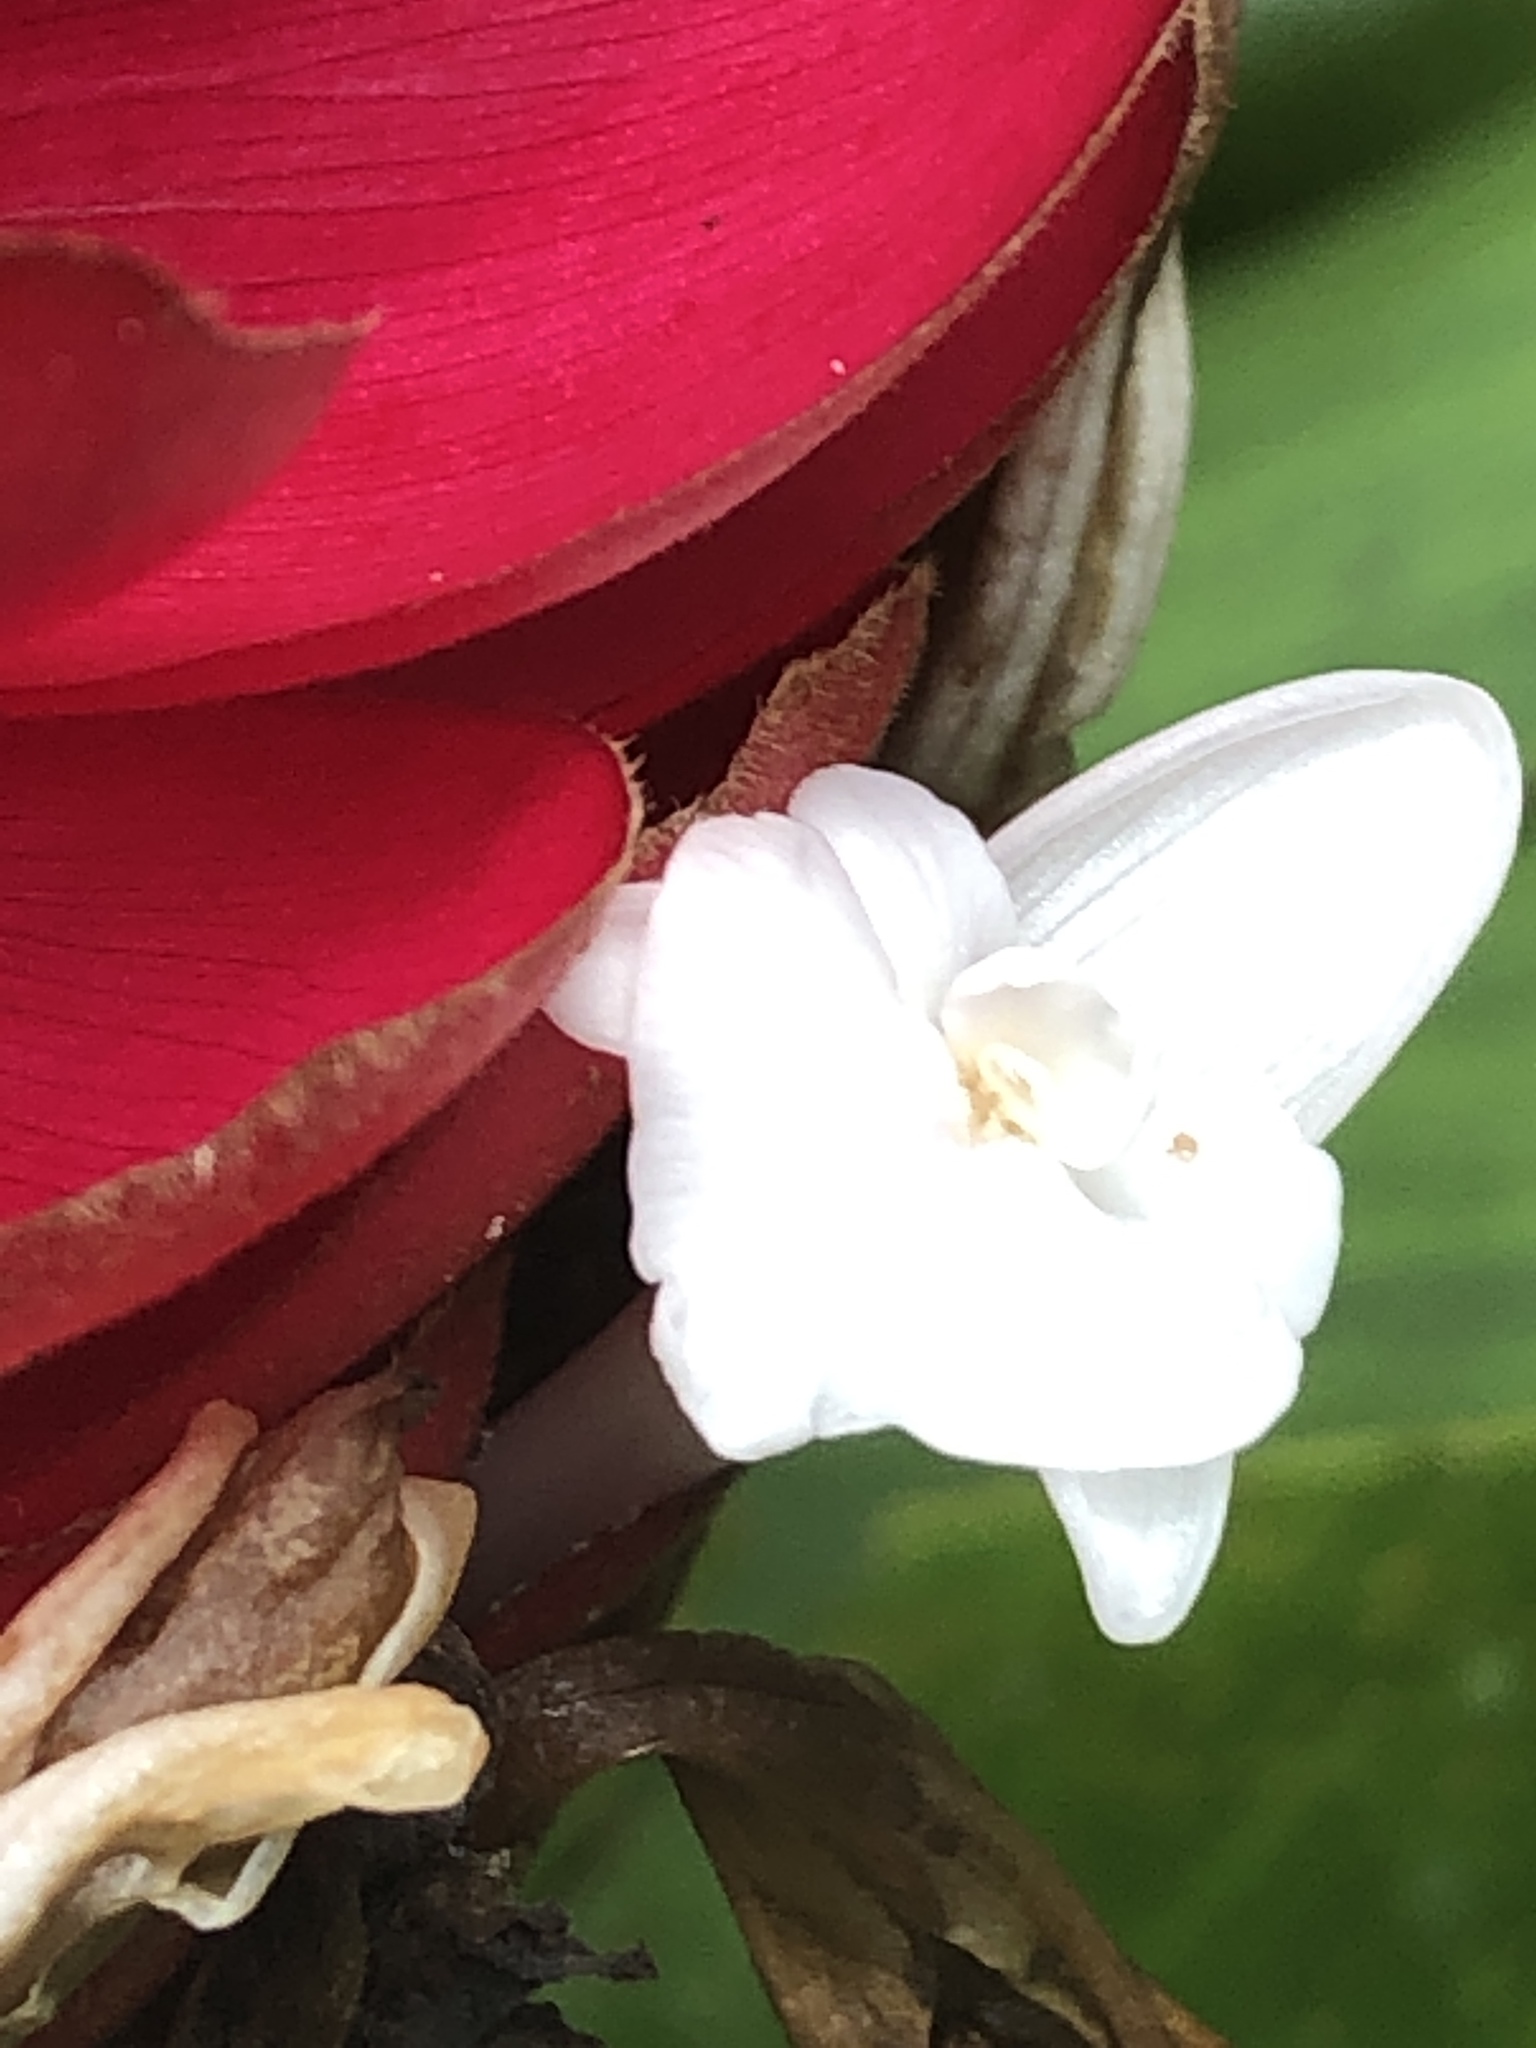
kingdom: Plantae
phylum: Tracheophyta
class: Liliopsida
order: Zingiberales
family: Zingiberaceae
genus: Alpinia
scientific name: Alpinia purpurata
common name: Red ginger
